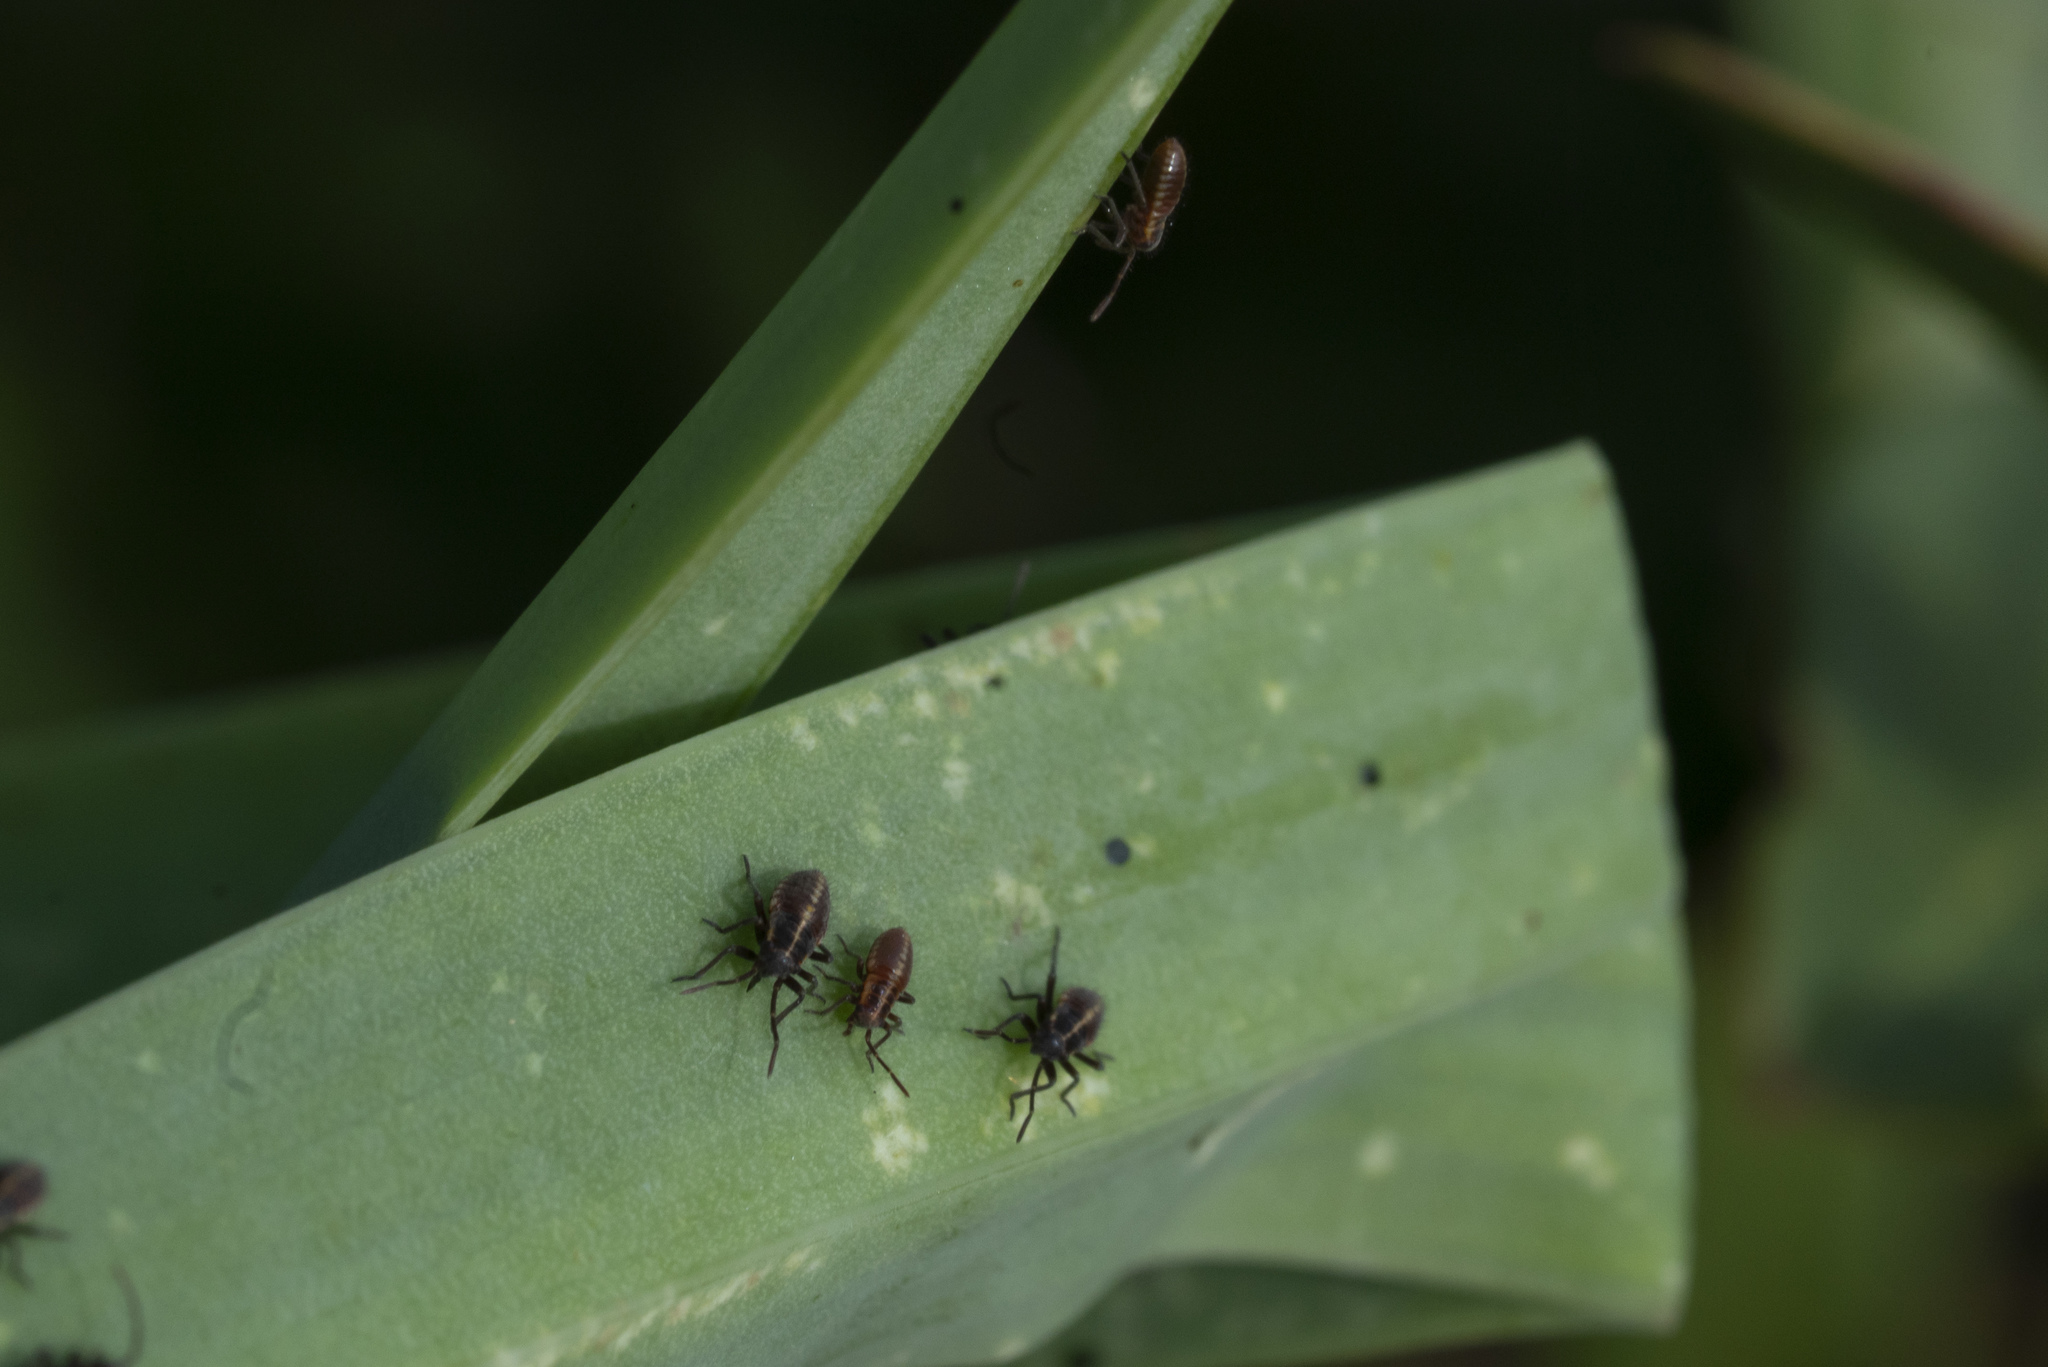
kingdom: Animalia
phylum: Arthropoda
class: Insecta
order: Hemiptera
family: Miridae
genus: Horistus
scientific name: Horistus infuscatus
